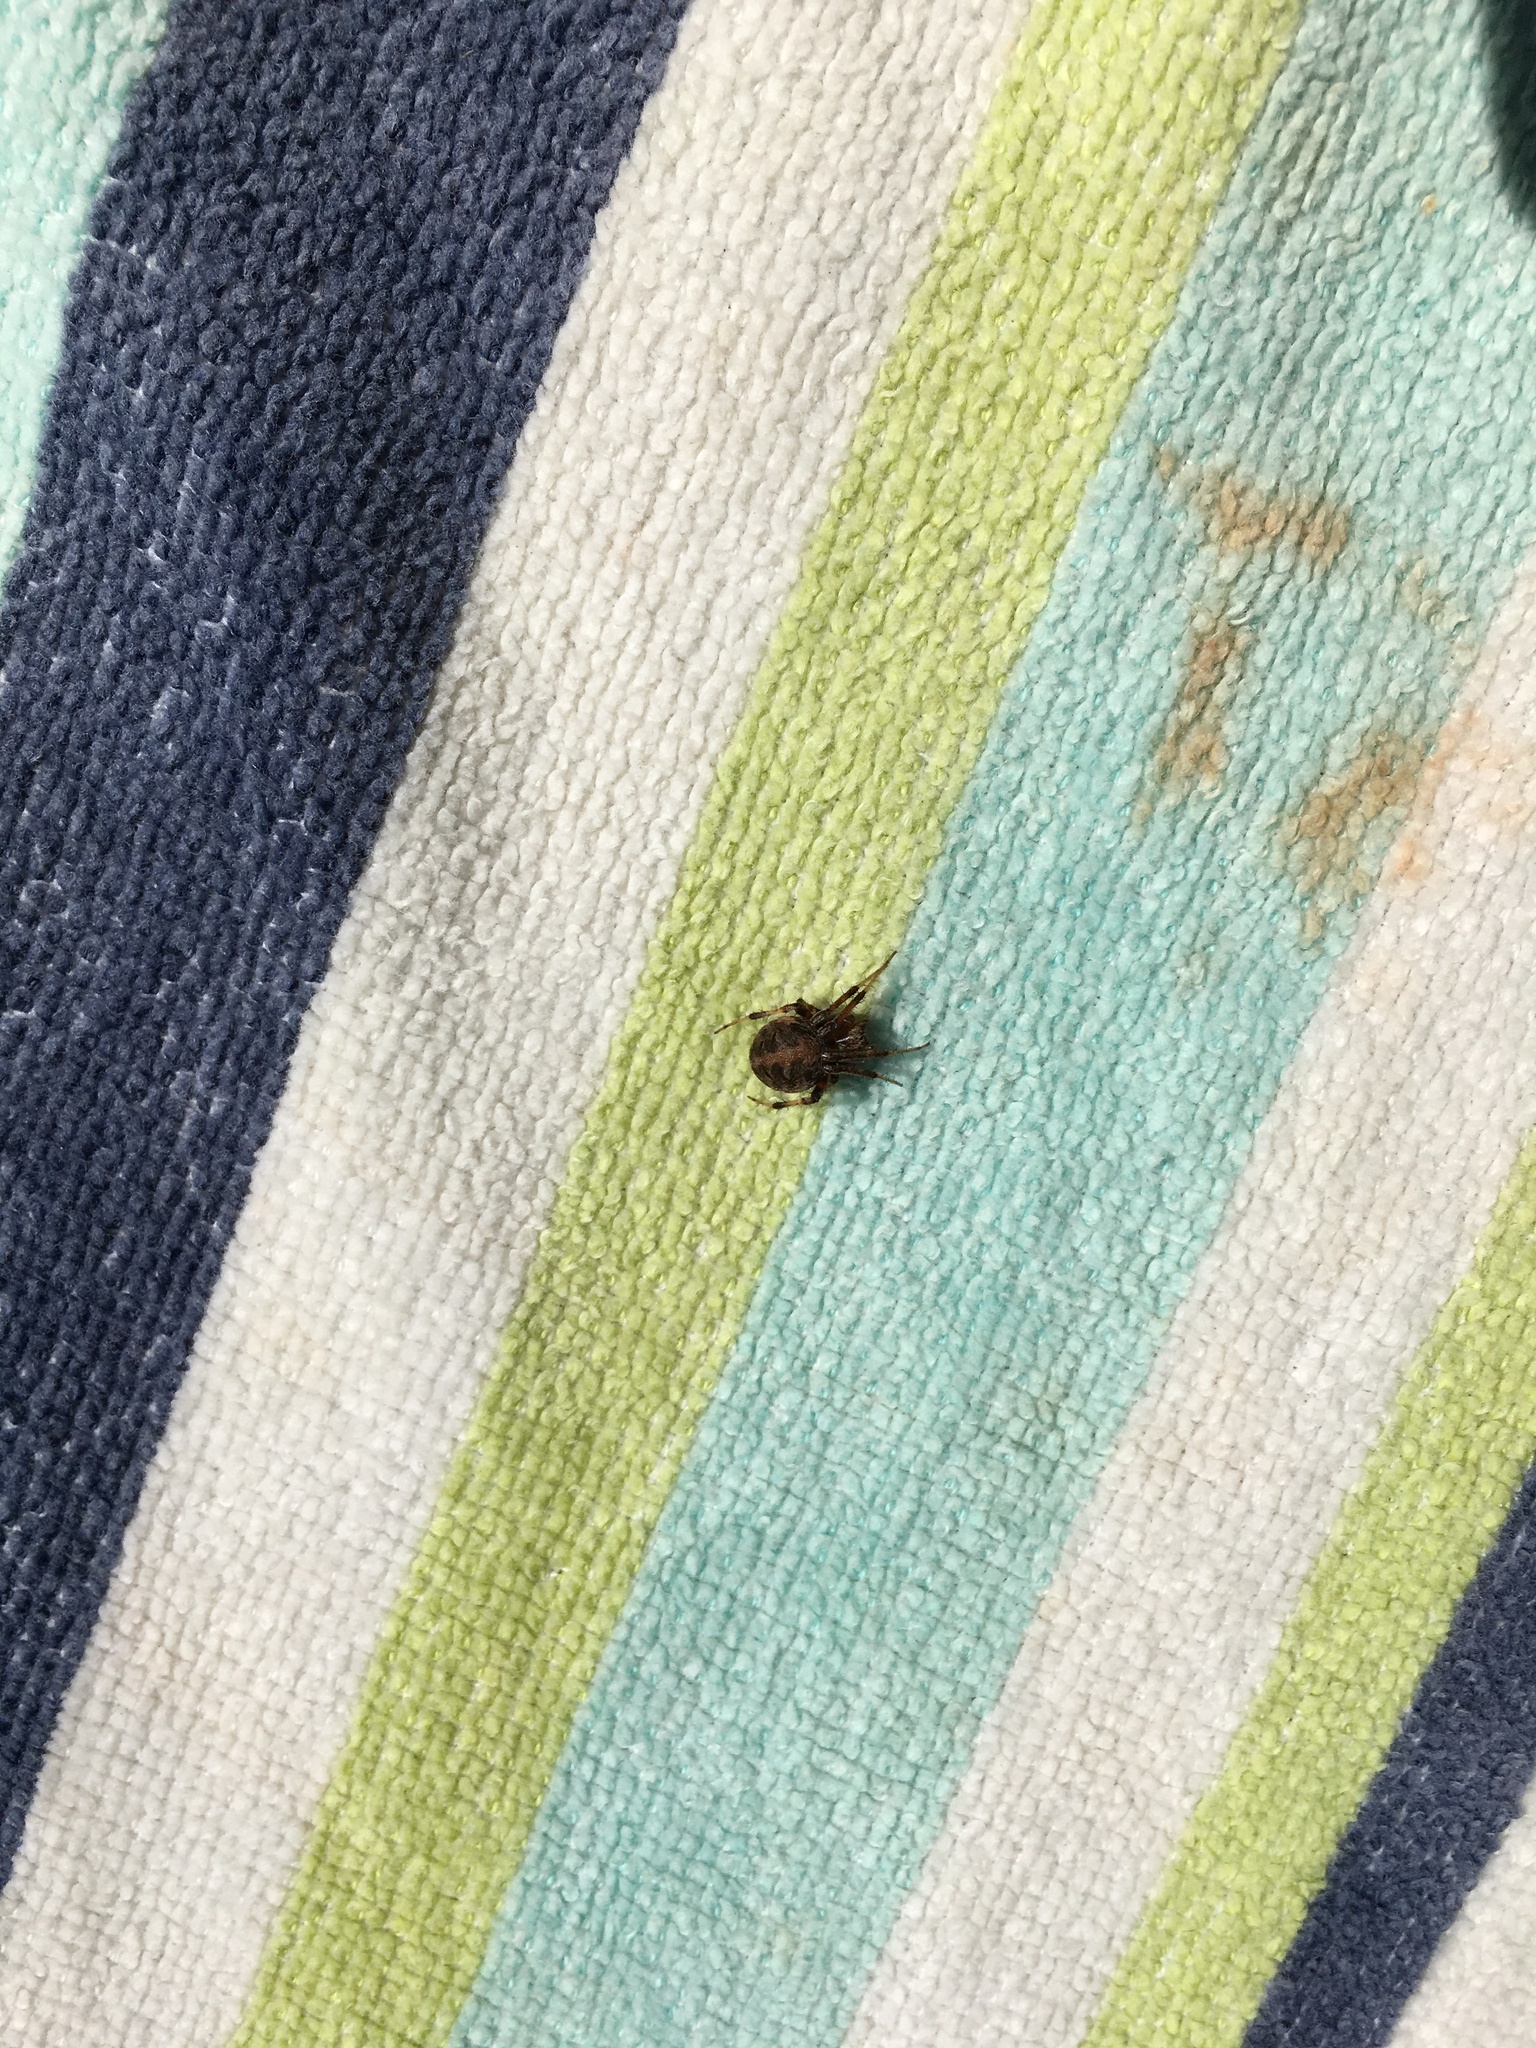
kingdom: Animalia
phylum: Arthropoda
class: Arachnida
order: Araneae
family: Araneidae
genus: Metepeira
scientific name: Metepeira labyrinthea
